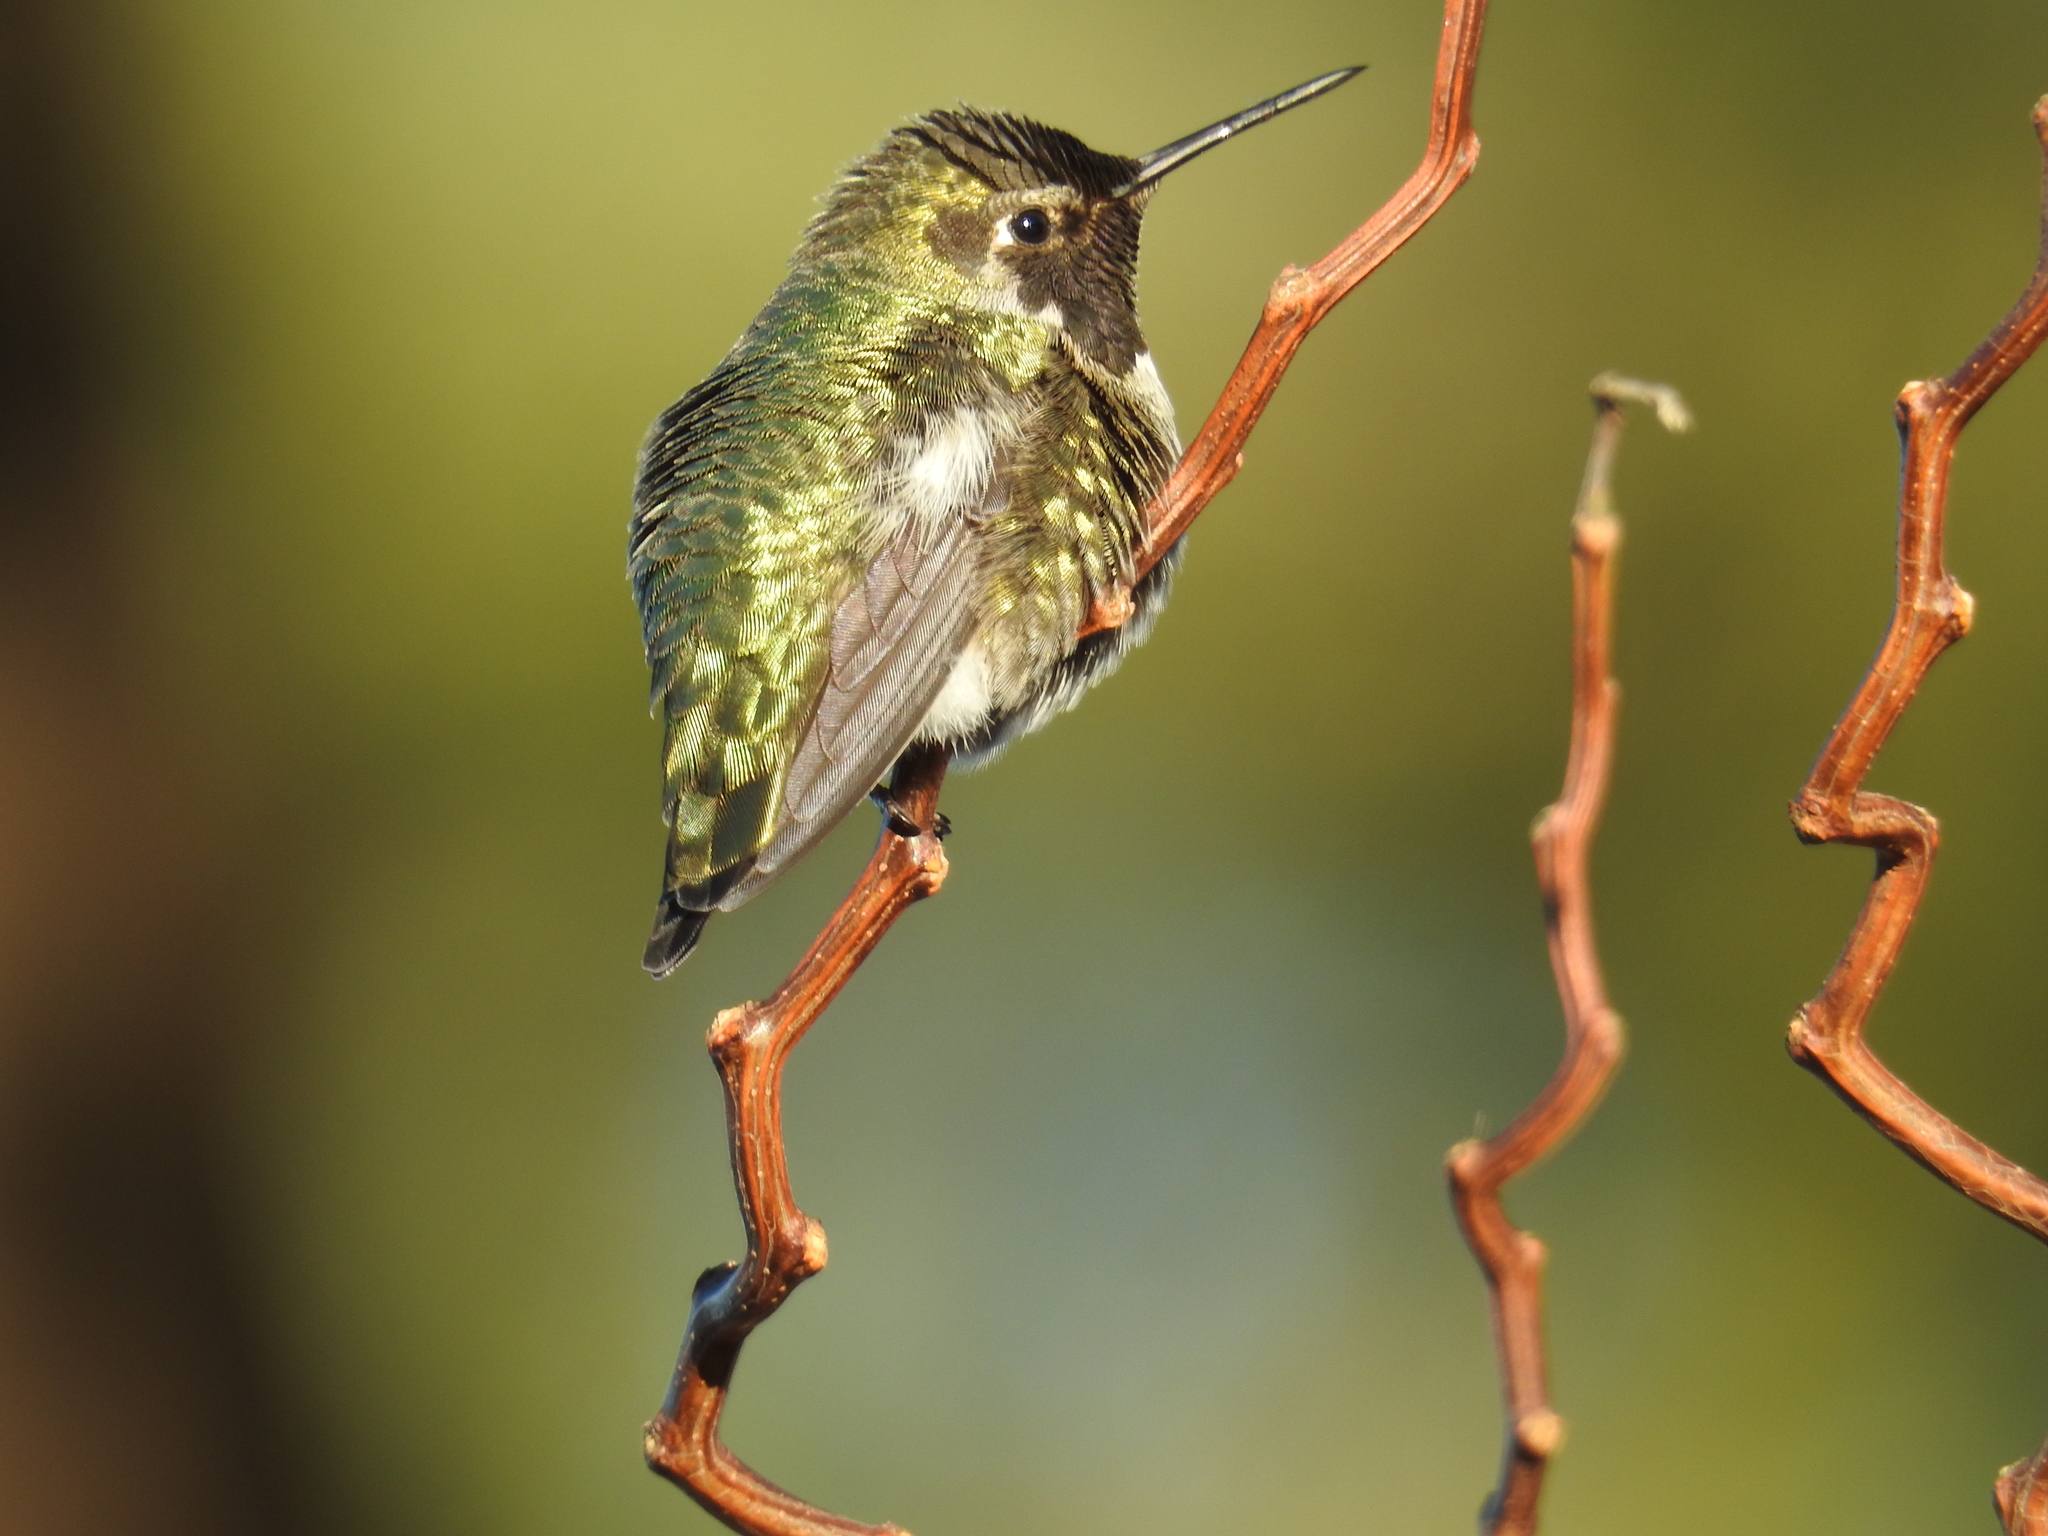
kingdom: Animalia
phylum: Chordata
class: Aves
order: Apodiformes
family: Trochilidae
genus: Calypte
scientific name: Calypte anna
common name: Anna's hummingbird
